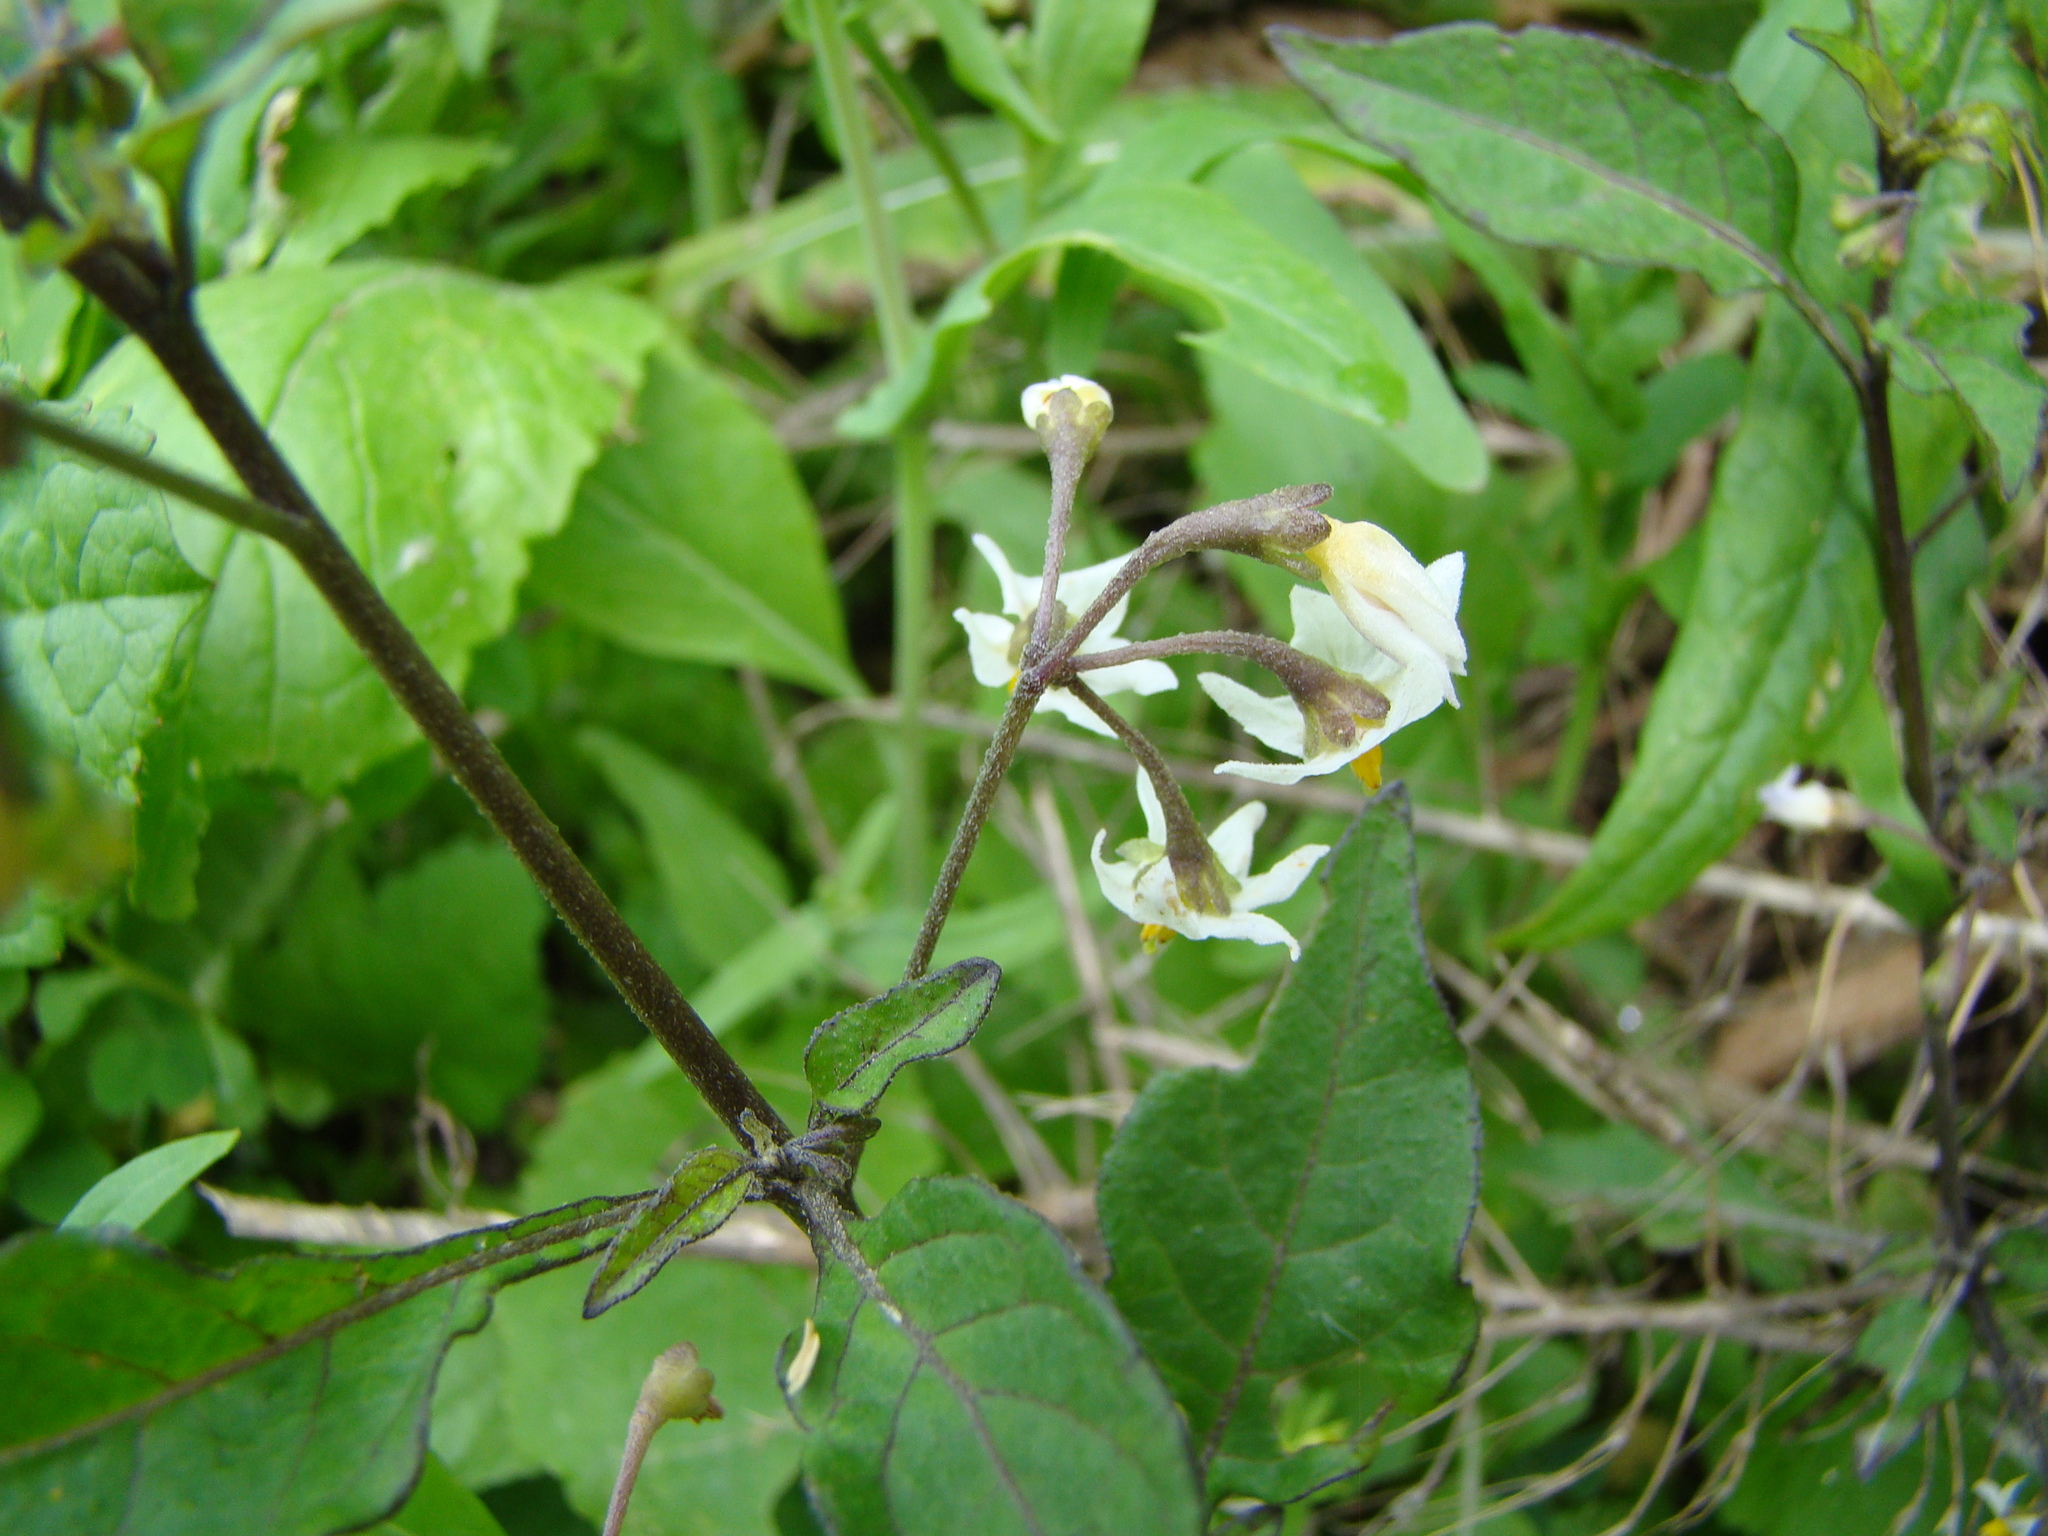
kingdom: Plantae
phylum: Tracheophyta
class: Magnoliopsida
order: Solanales
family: Solanaceae
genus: Solanum
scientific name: Solanum nigrum
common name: Black nightshade
